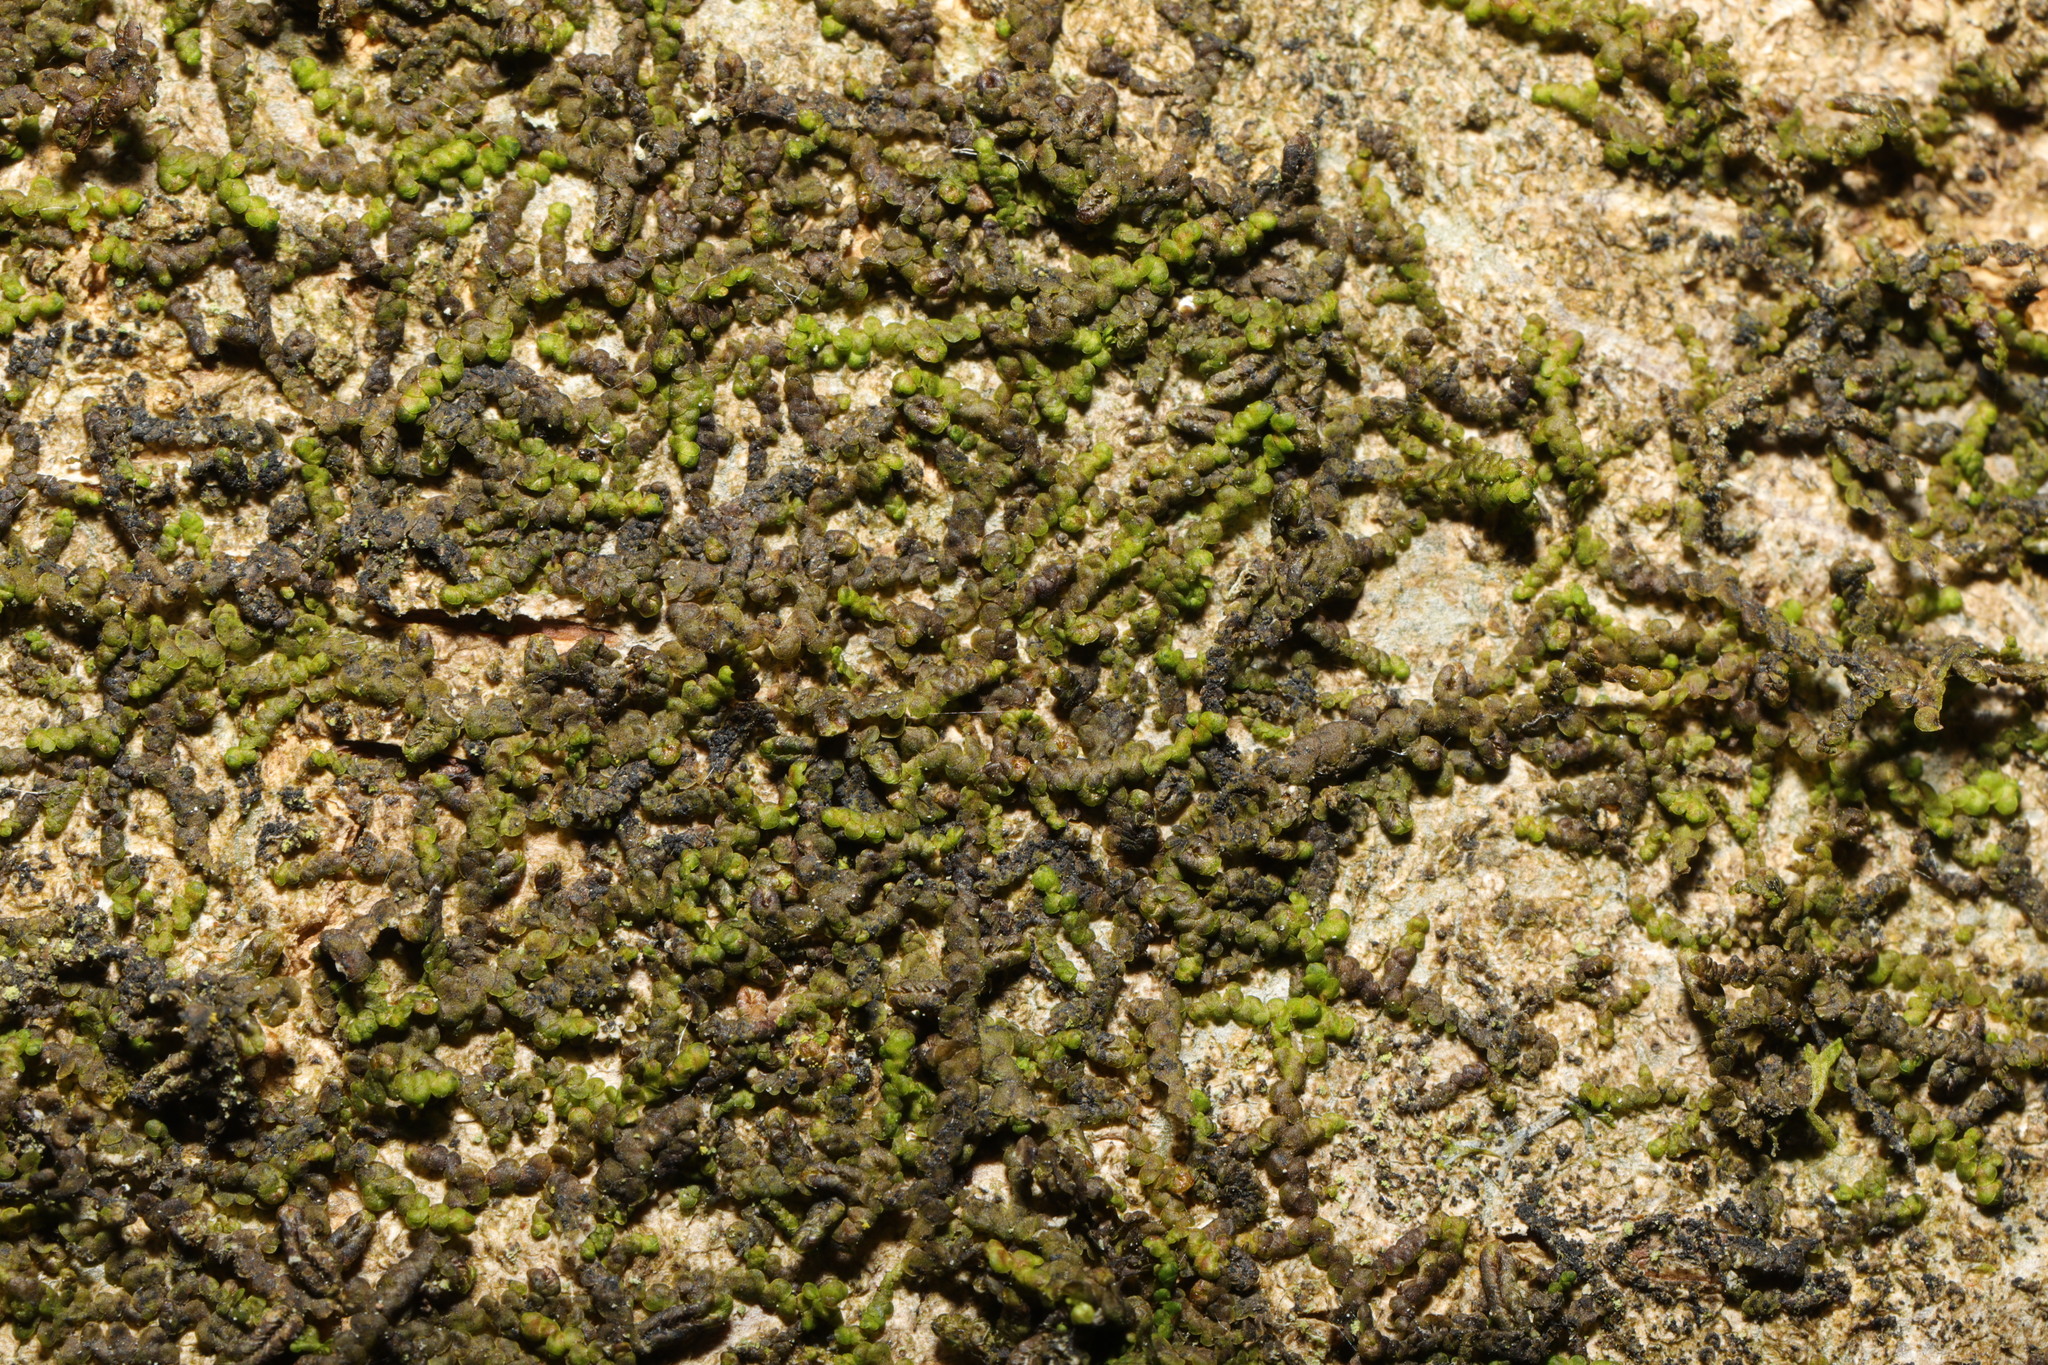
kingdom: Plantae
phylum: Marchantiophyta
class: Jungermanniopsida
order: Porellales
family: Frullaniaceae
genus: Frullania
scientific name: Frullania dilatata
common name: Dilated scalewort
